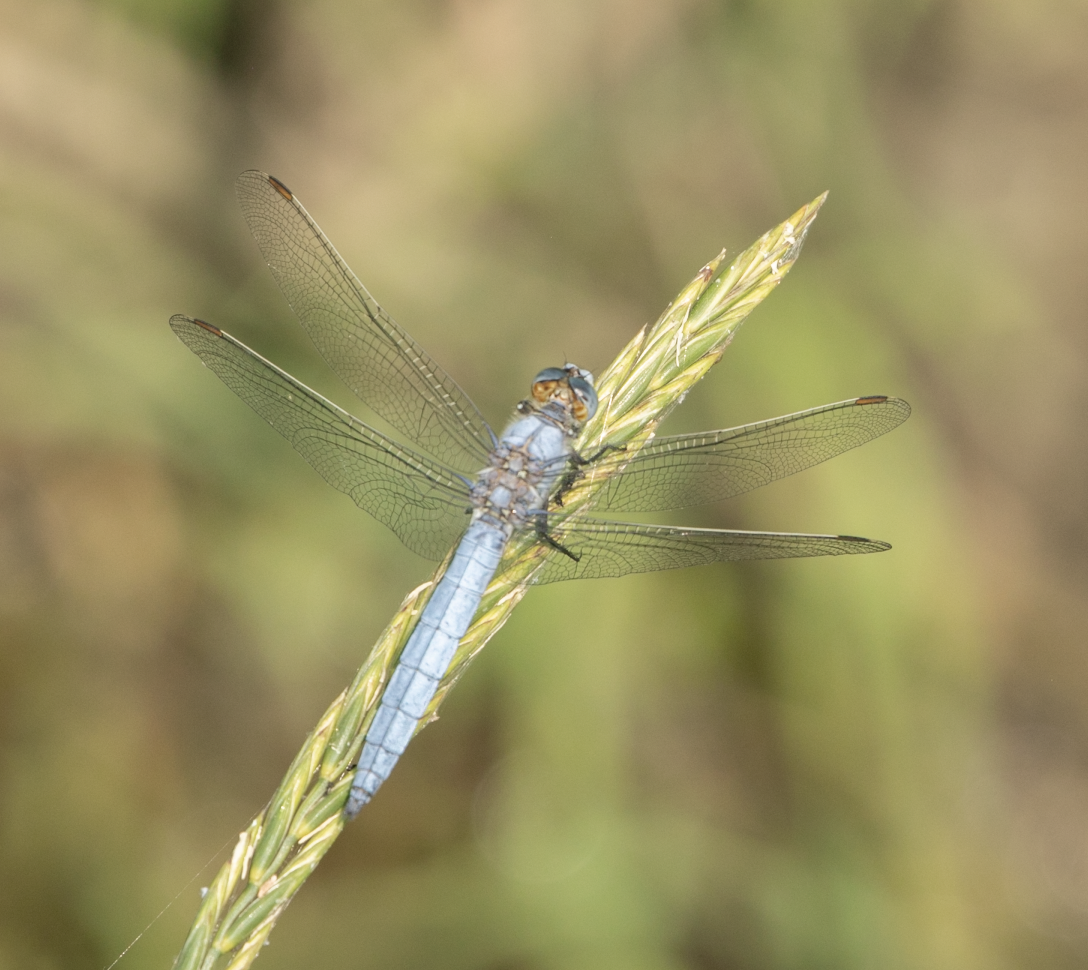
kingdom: Animalia
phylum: Arthropoda
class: Insecta
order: Odonata
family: Libellulidae
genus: Orthetrum
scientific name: Orthetrum brunneum
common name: Southern skimmer
